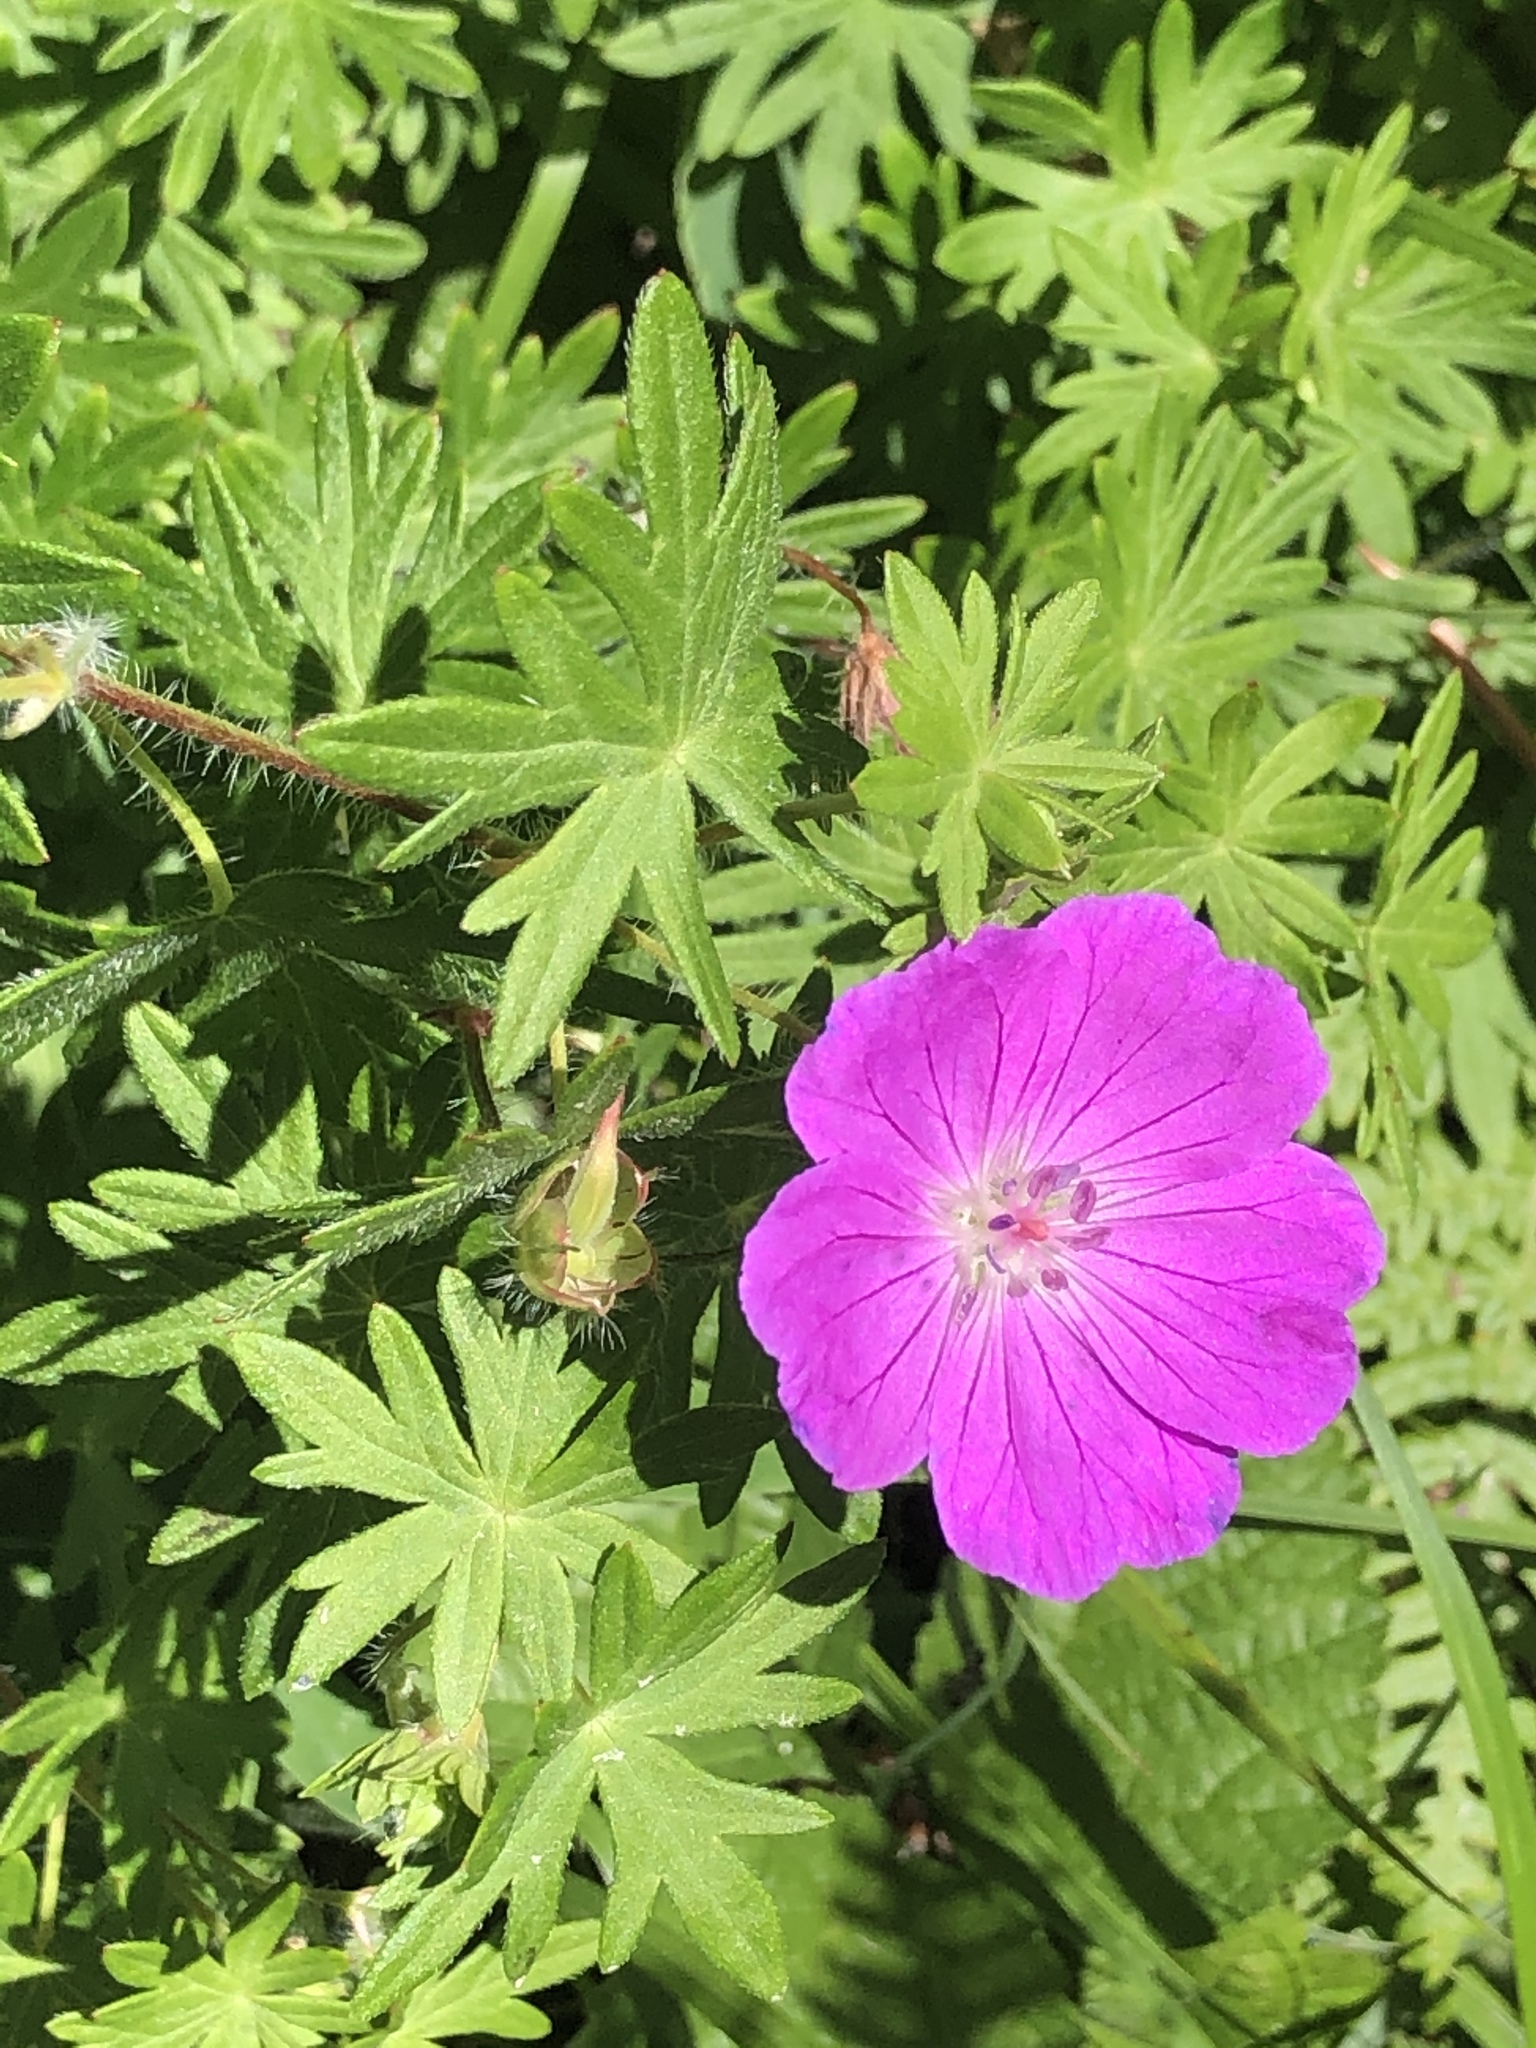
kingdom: Plantae
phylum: Tracheophyta
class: Magnoliopsida
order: Geraniales
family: Geraniaceae
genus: Geranium
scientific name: Geranium sanguineum
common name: Bloody crane's-bill
